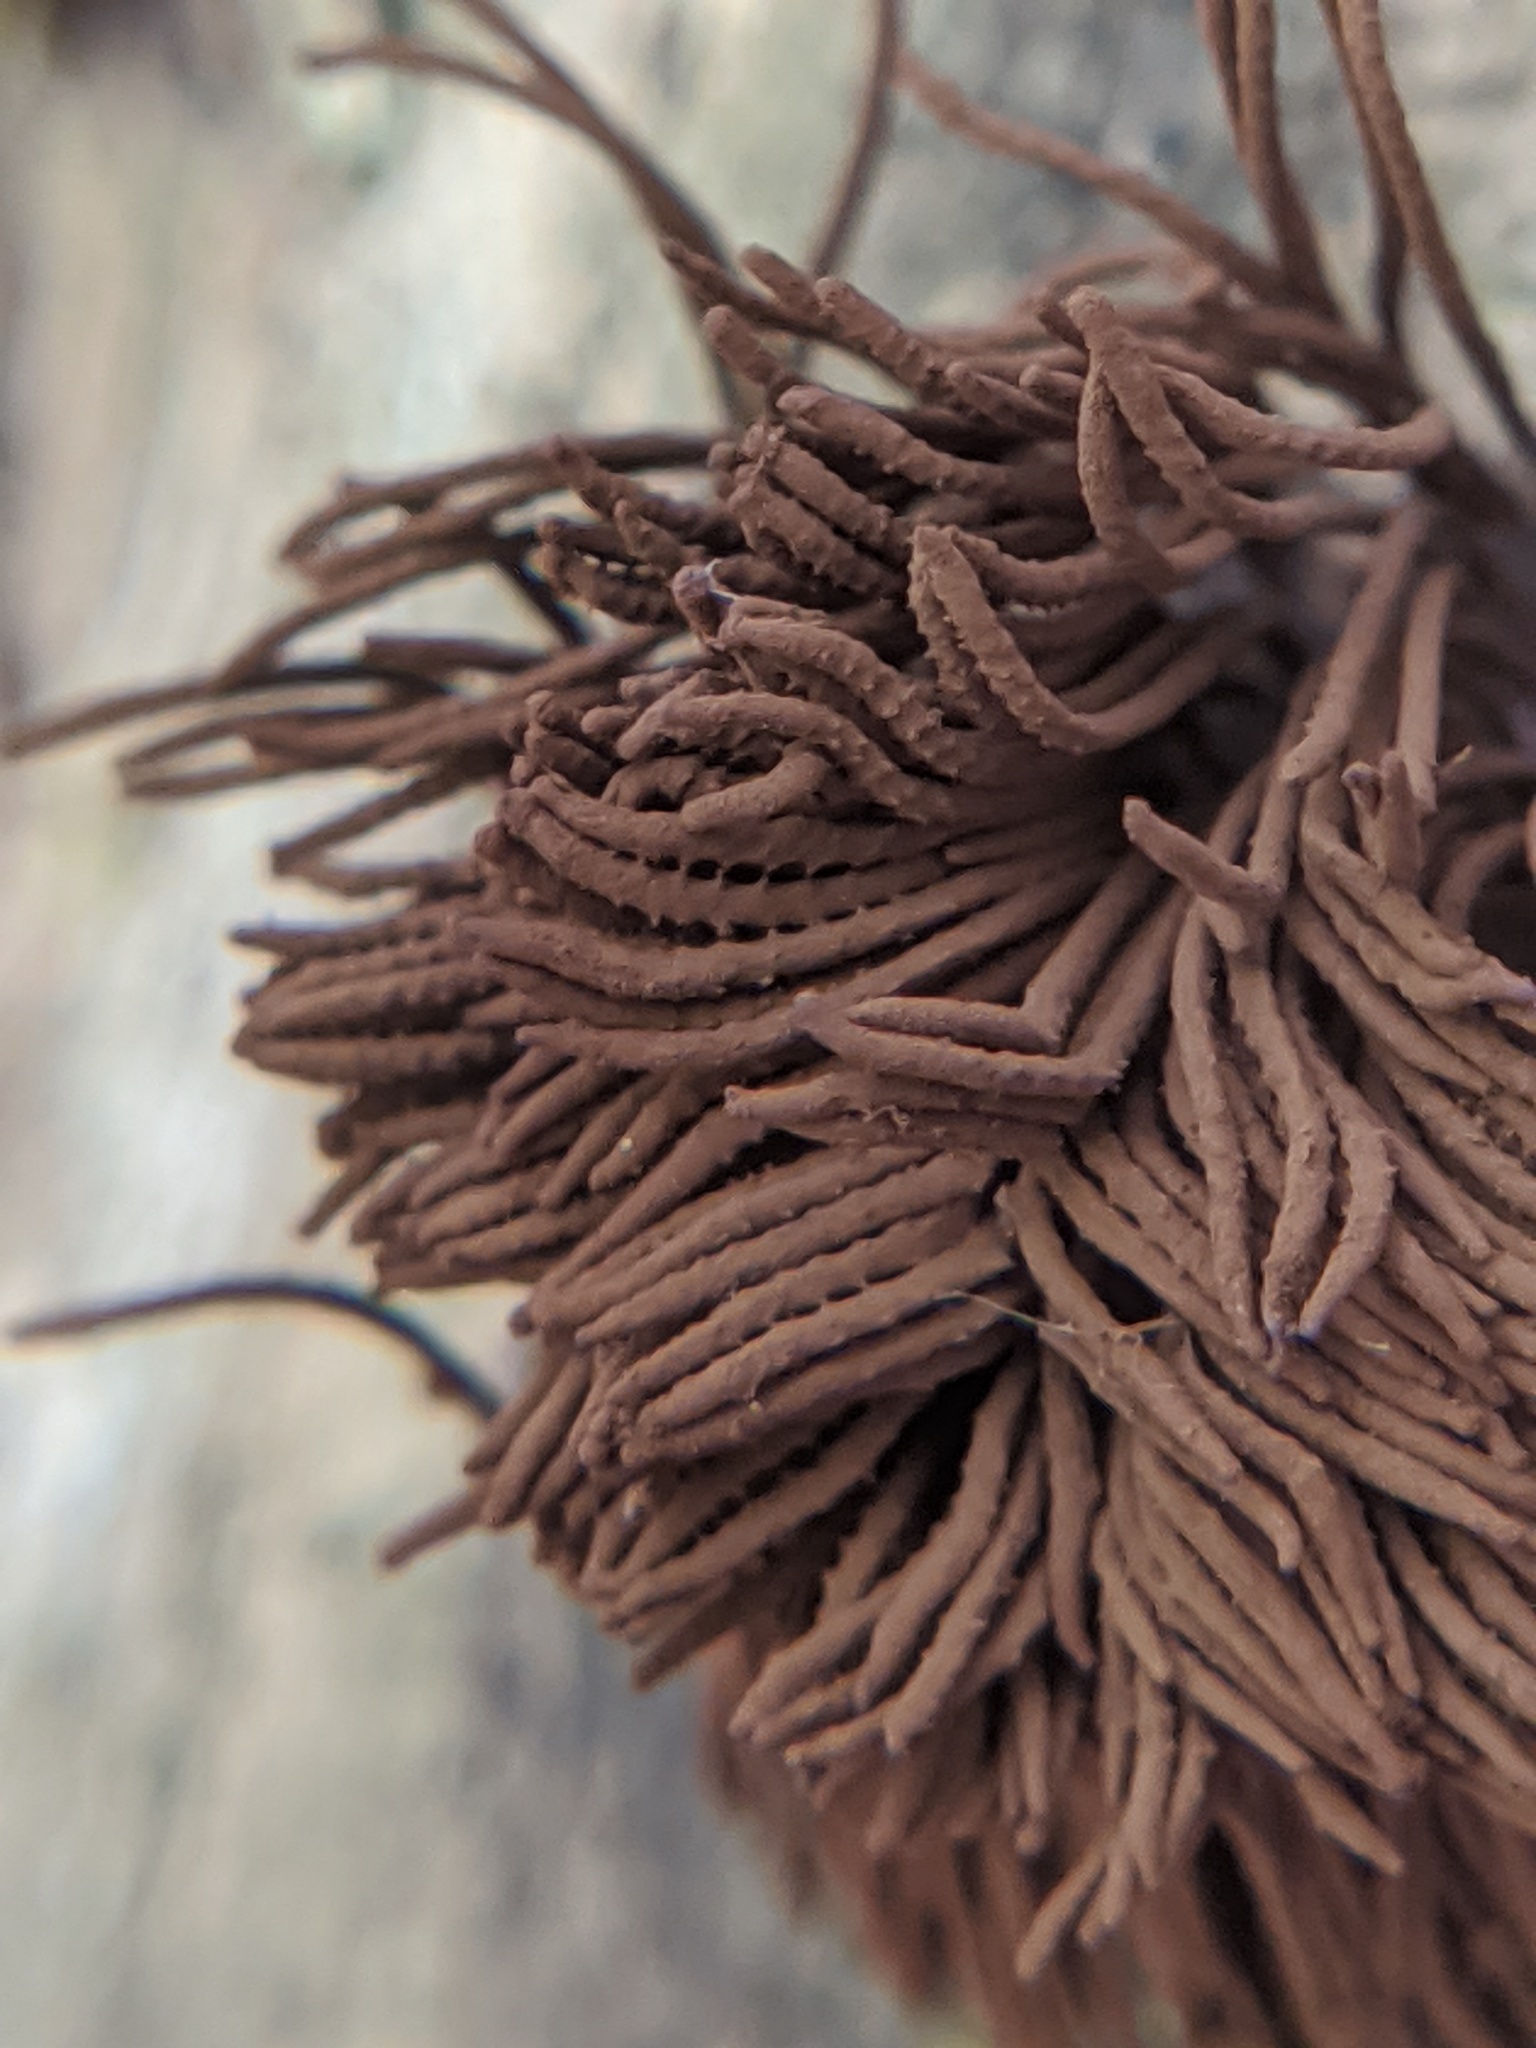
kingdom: Protozoa
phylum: Mycetozoa
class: Myxomycetes
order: Stemonitidales
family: Stemonitidaceae
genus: Stemonitis
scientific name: Stemonitis splendens
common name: Chocolate tube slime
